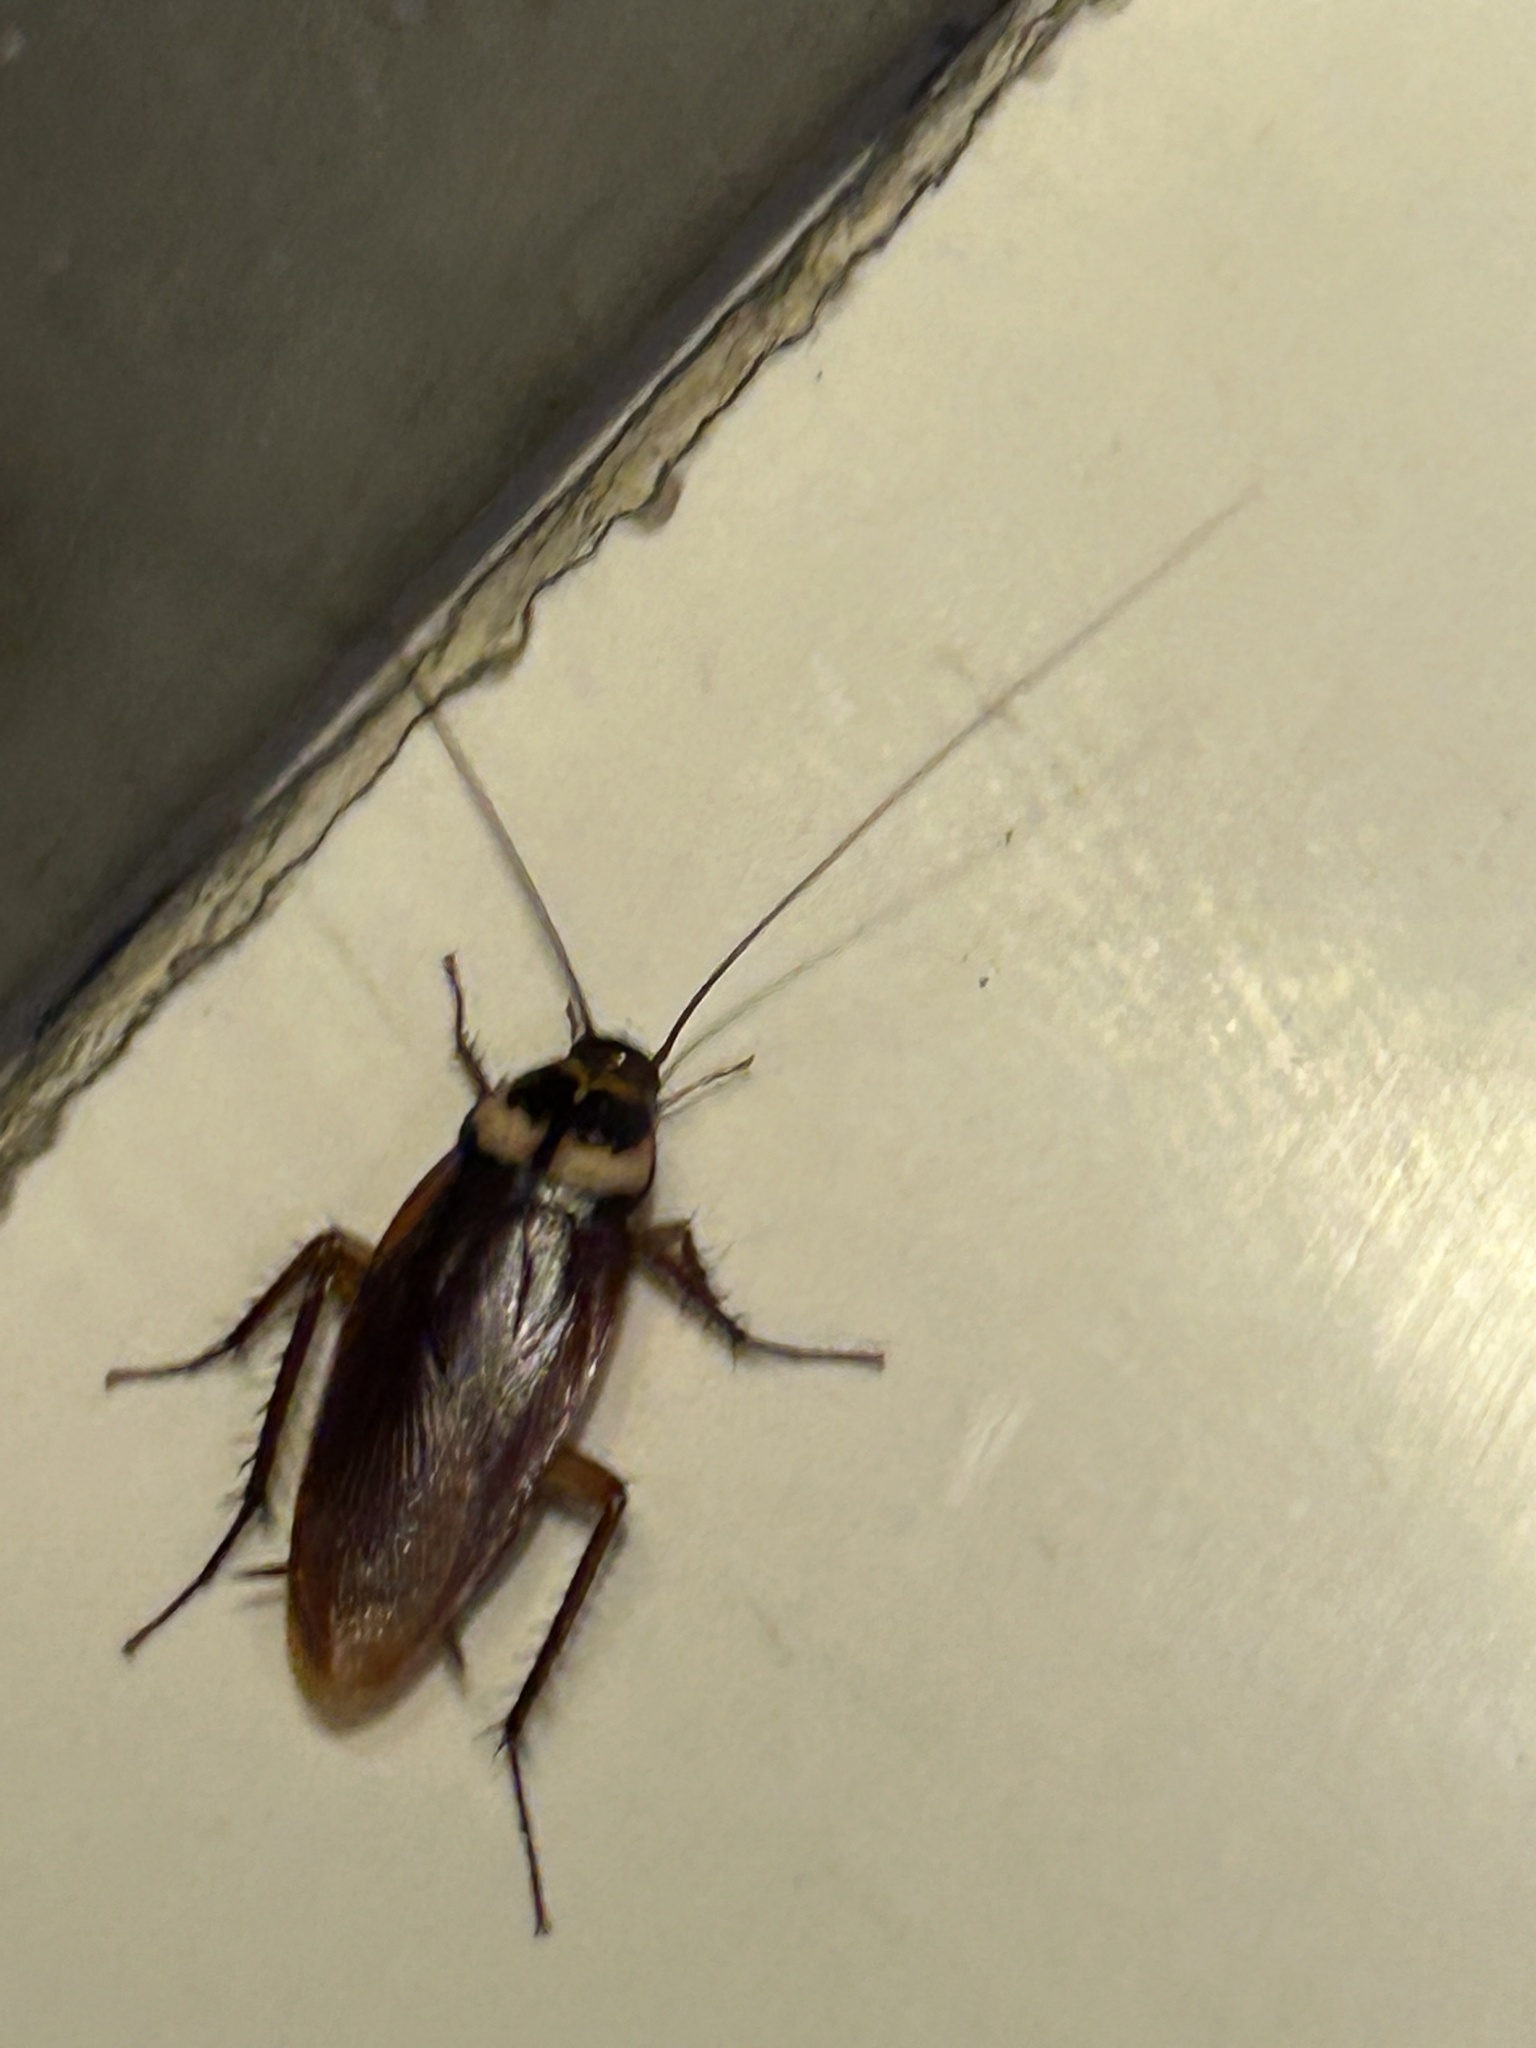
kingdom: Animalia
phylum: Arthropoda
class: Insecta
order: Blattodea
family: Blattidae
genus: Periplaneta
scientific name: Periplaneta americana
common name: American cockroach
